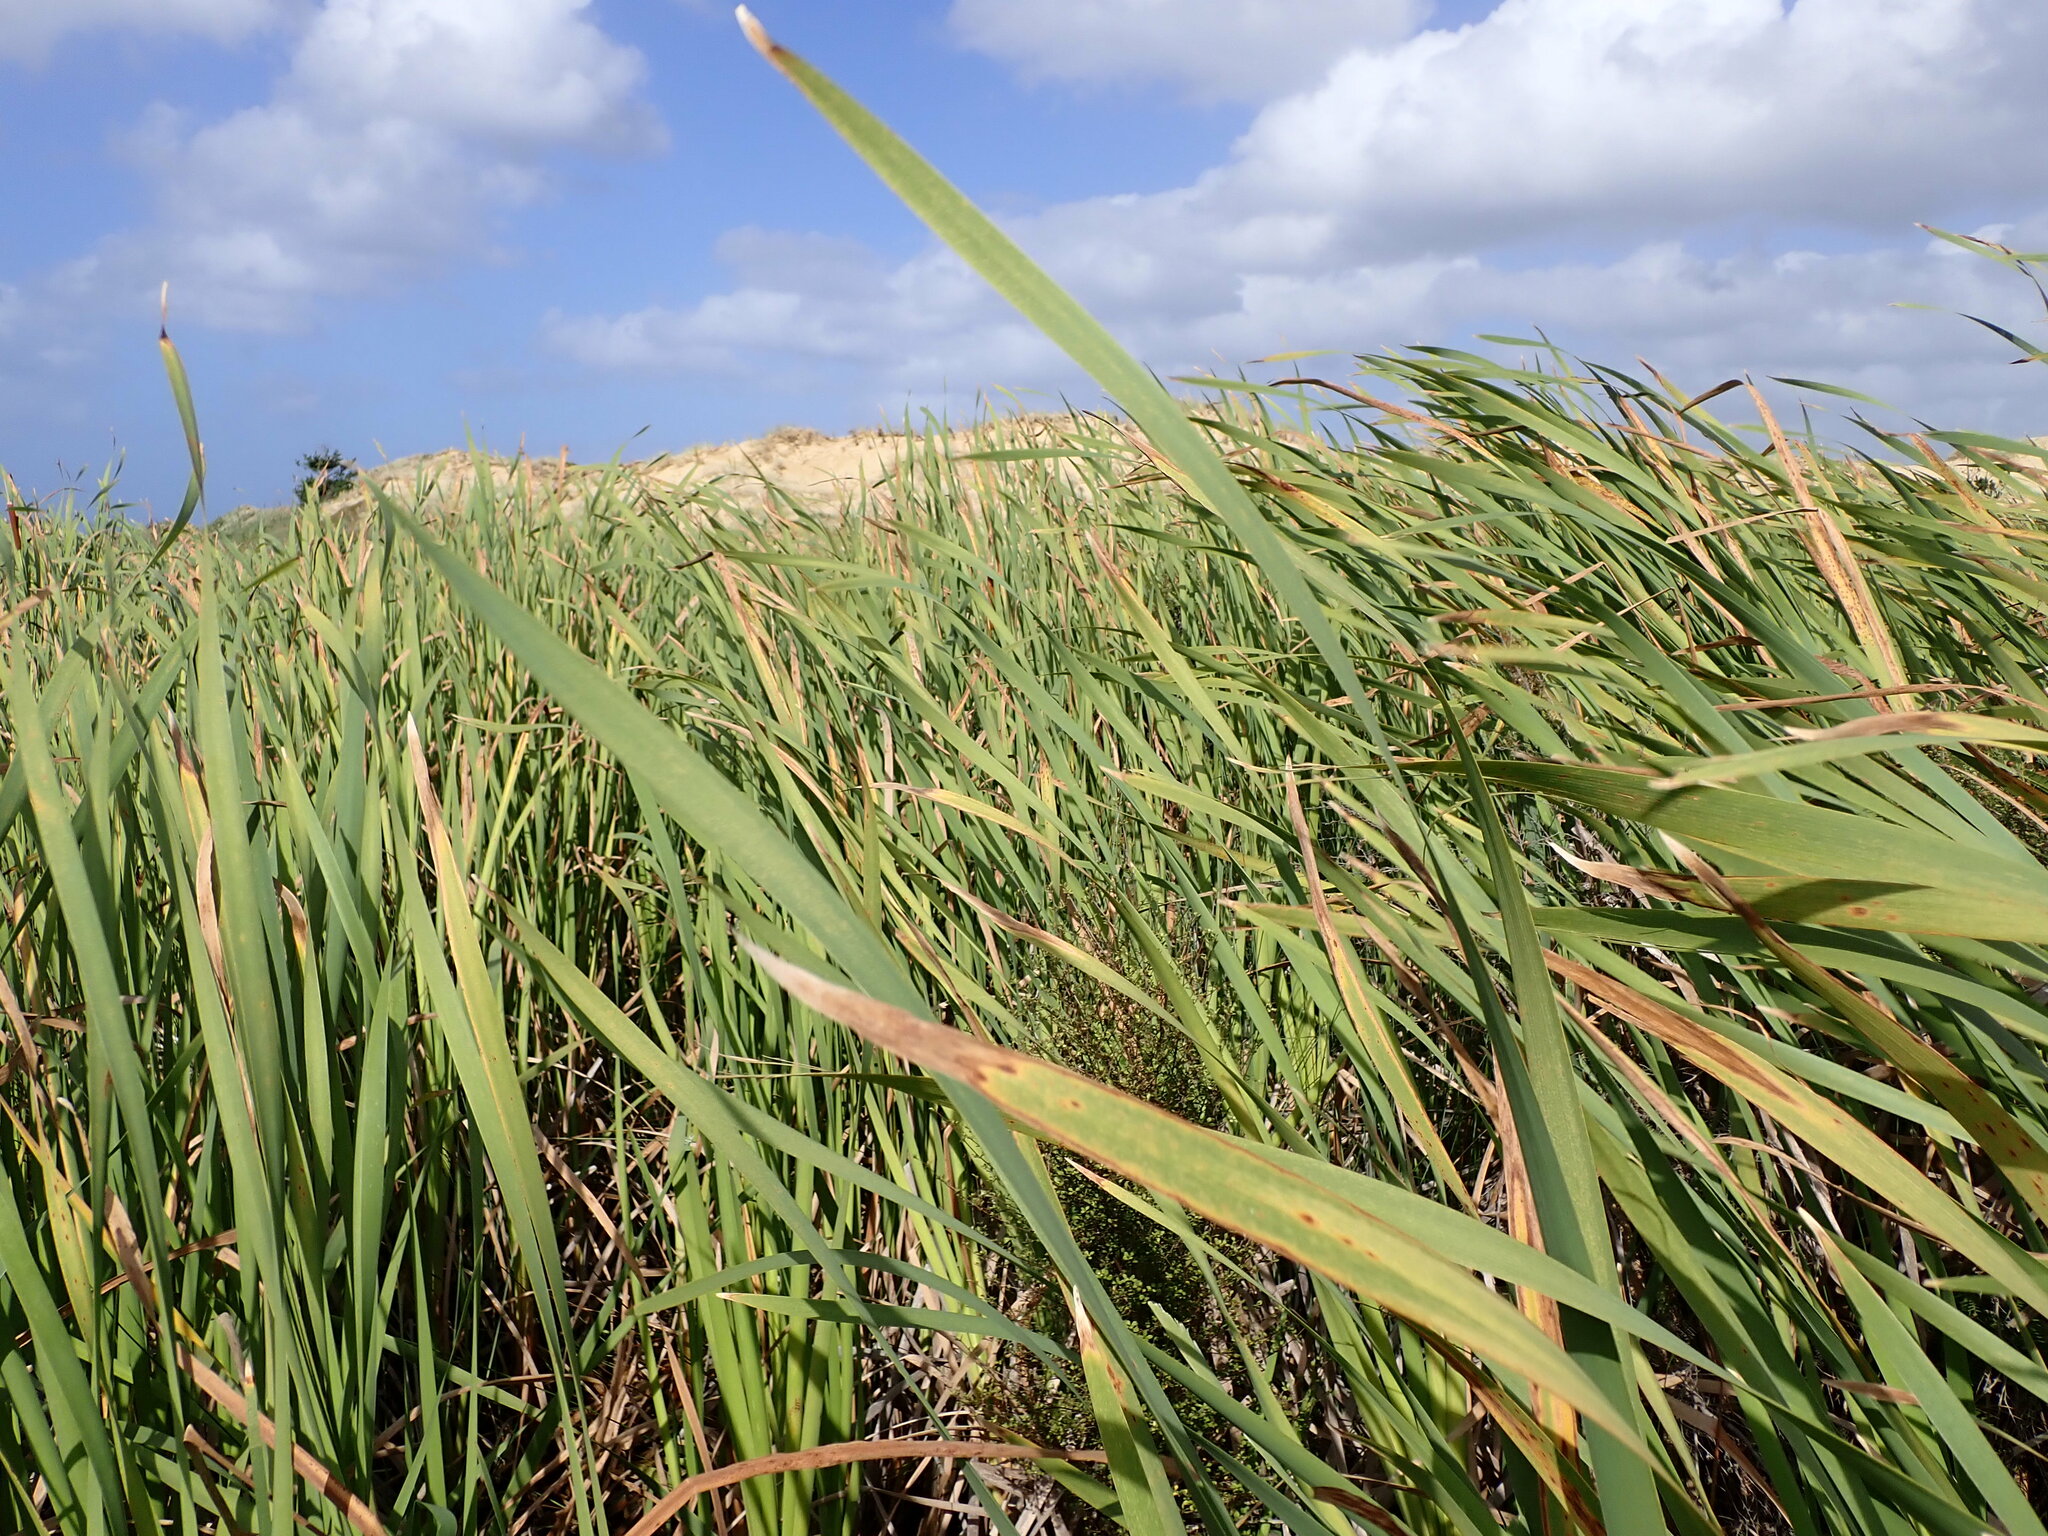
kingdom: Plantae
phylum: Tracheophyta
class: Liliopsida
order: Poales
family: Typhaceae
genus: Typha
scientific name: Typha orientalis
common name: Bullrush
